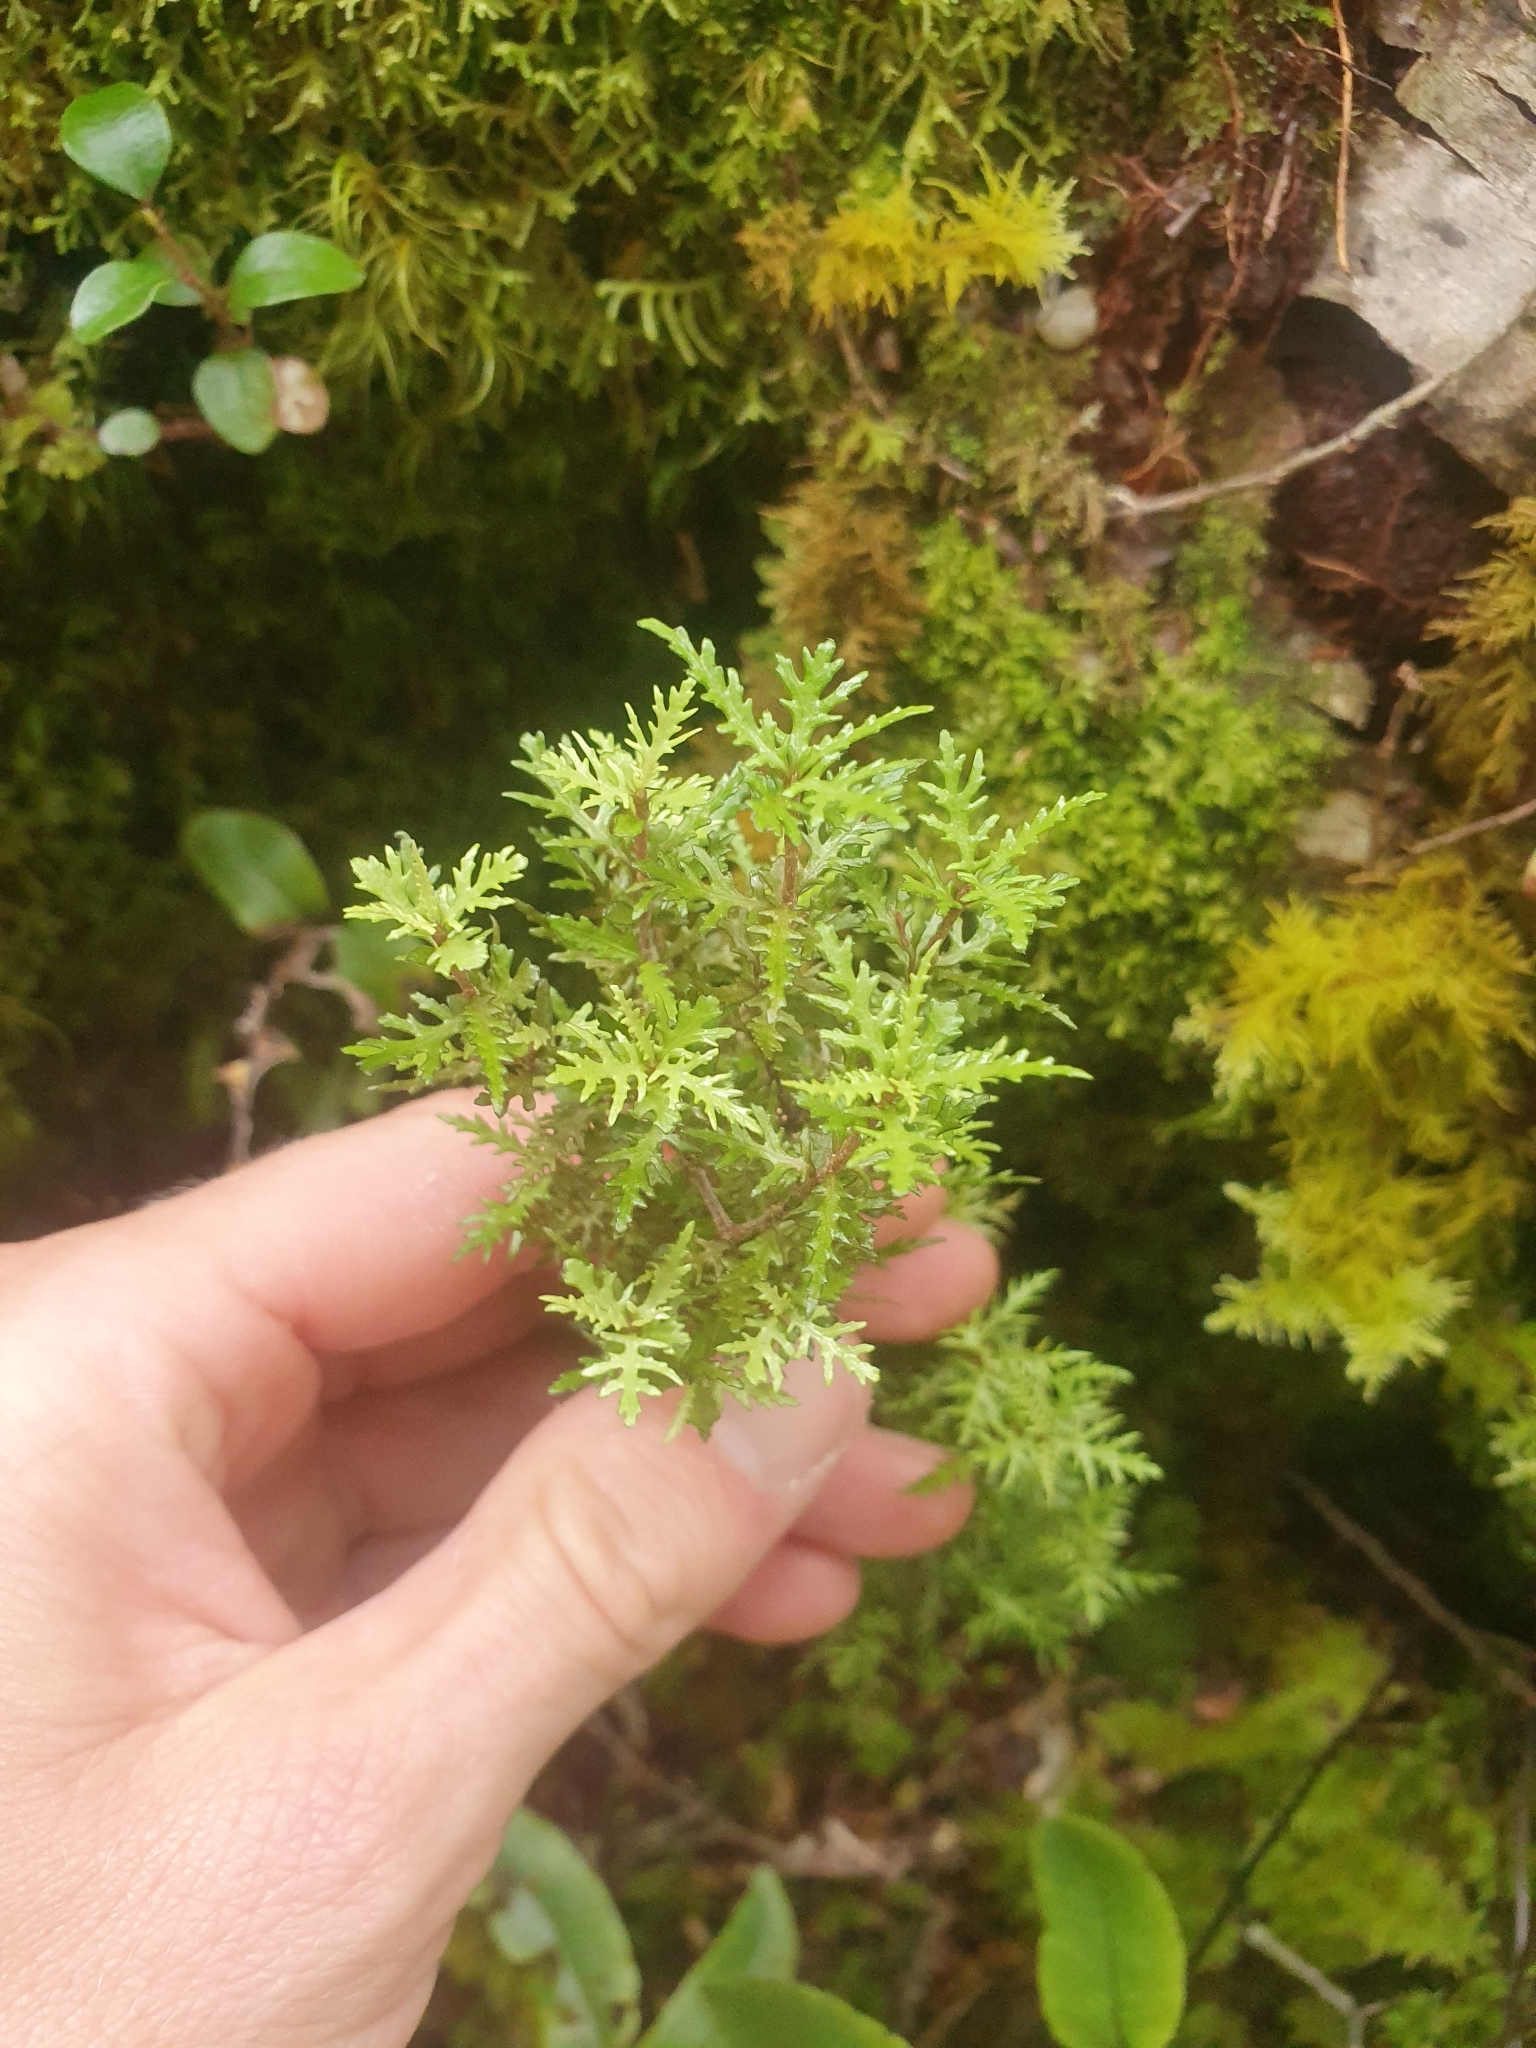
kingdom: Plantae
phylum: Tracheophyta
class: Magnoliopsida
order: Apiales
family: Pittosporaceae
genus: Pittosporum
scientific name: Pittosporum divaricatum
